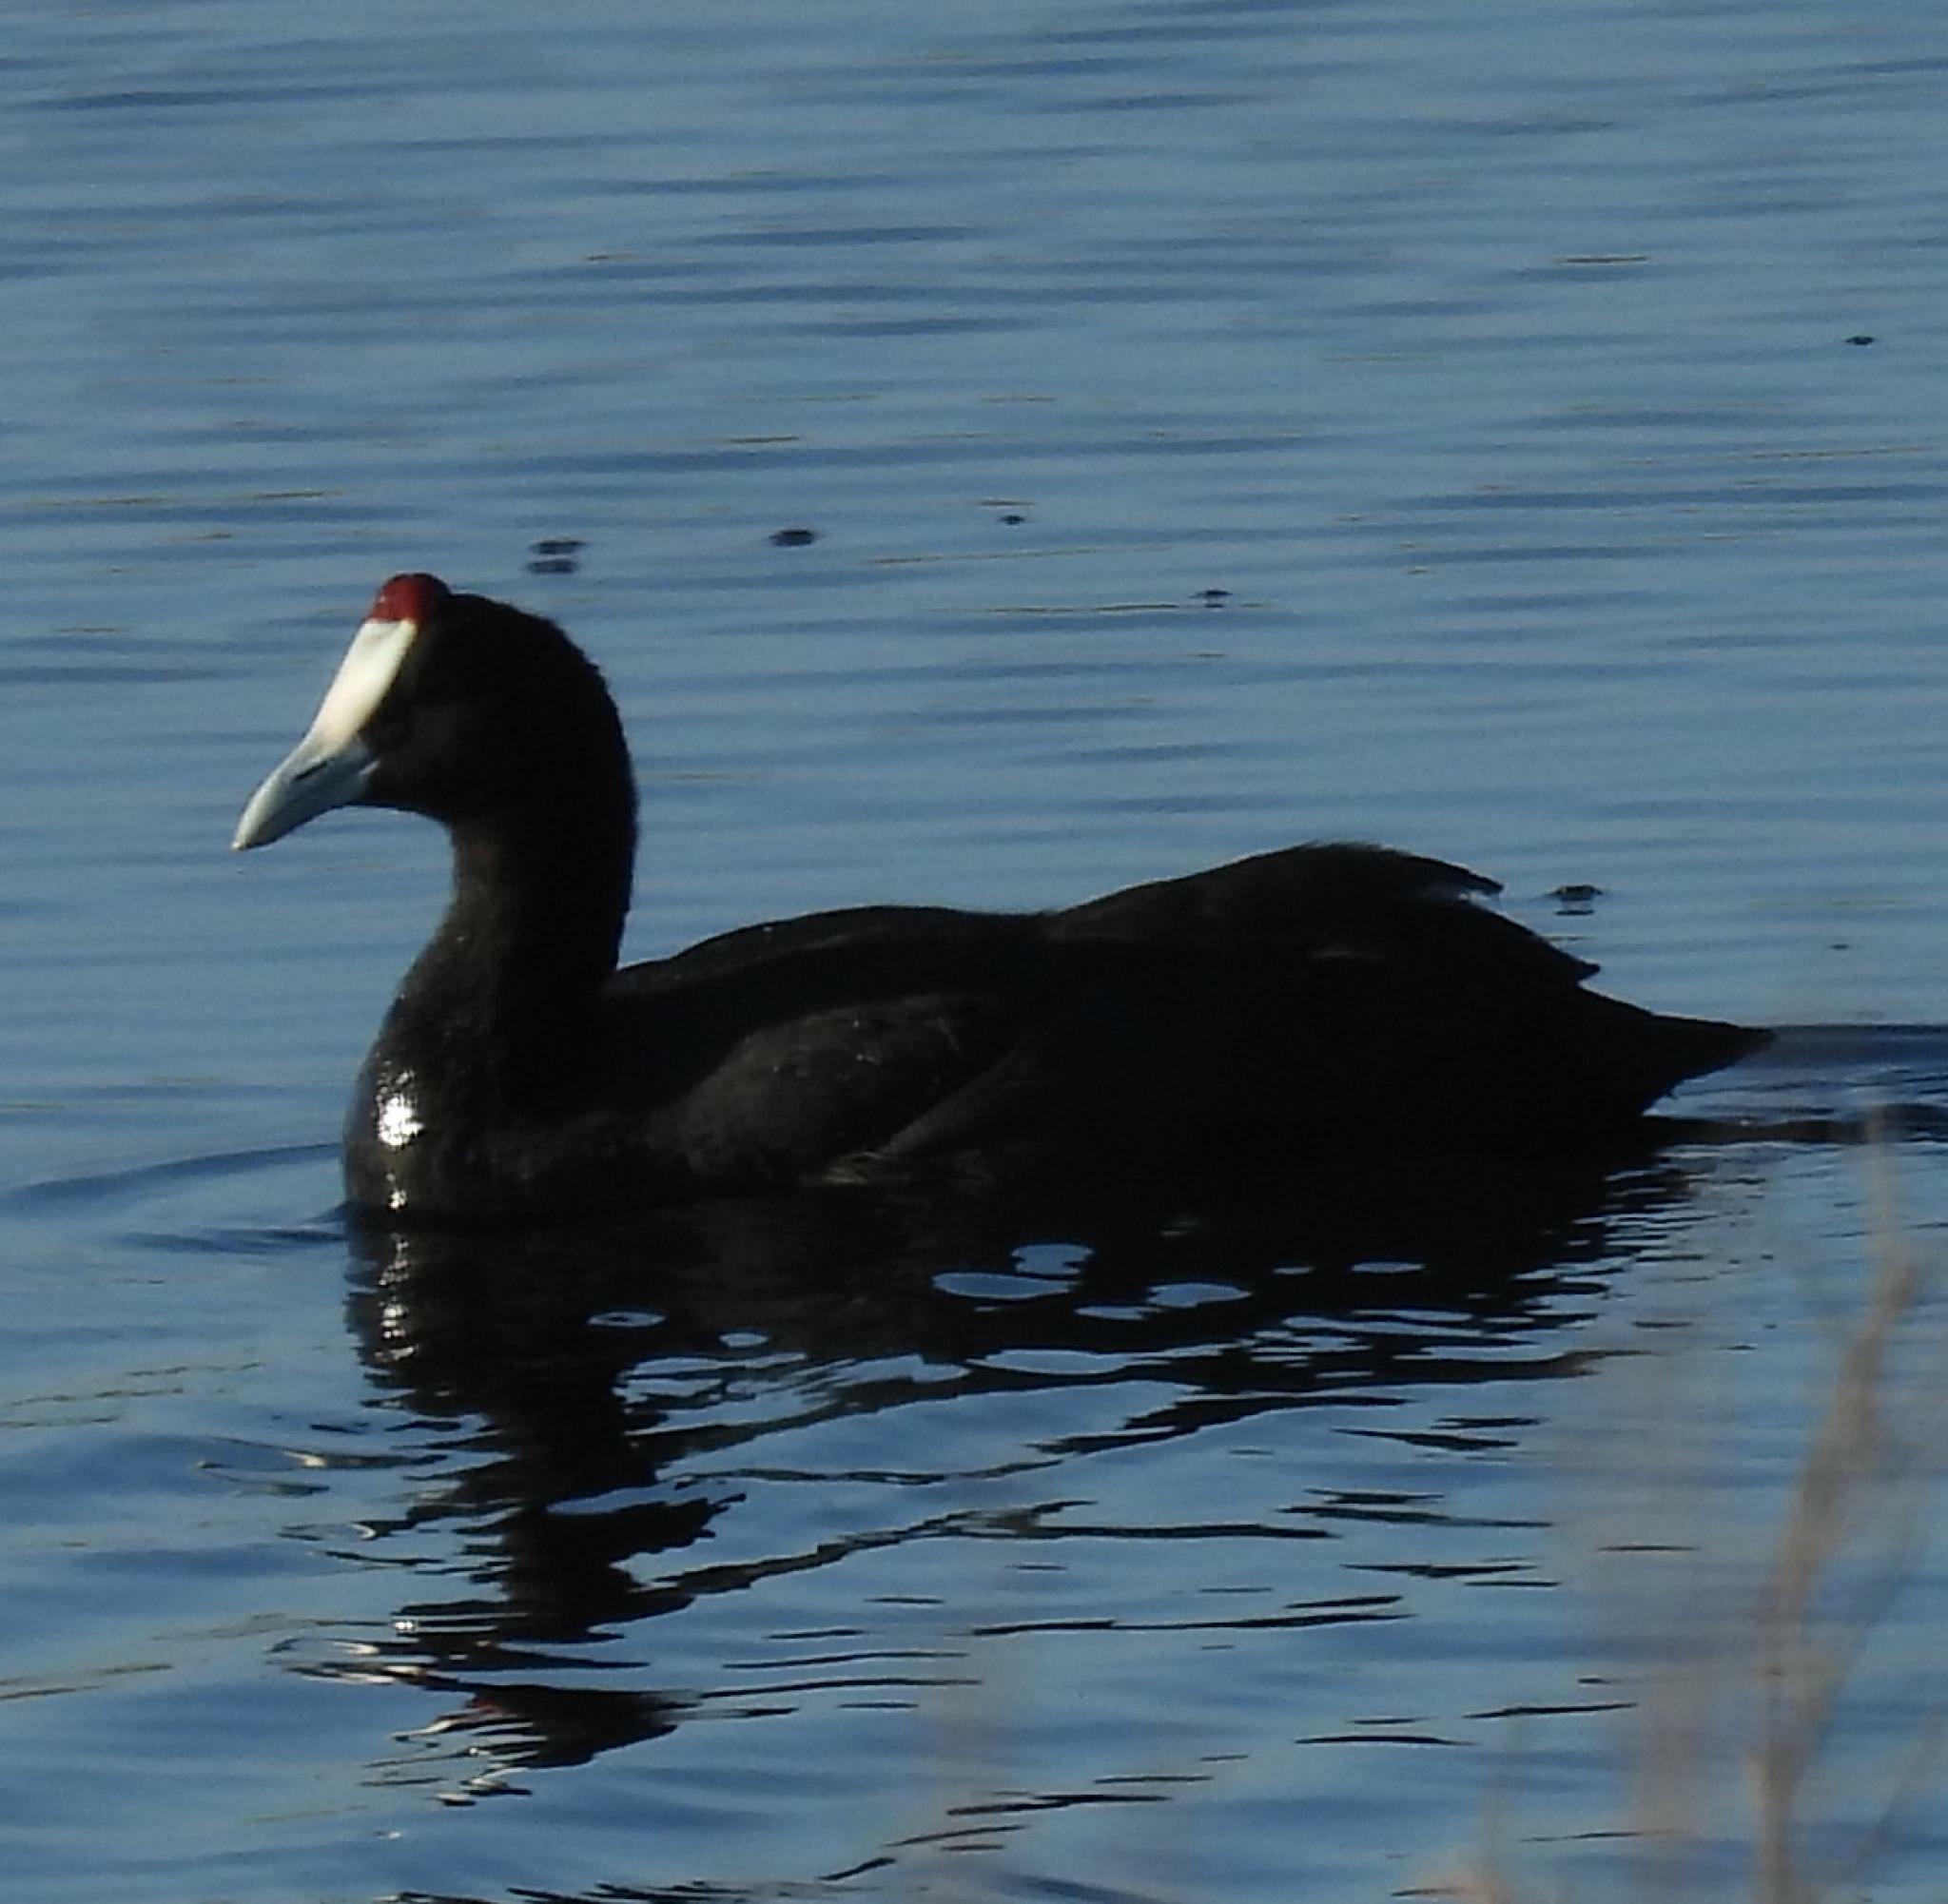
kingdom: Animalia
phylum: Chordata
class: Aves
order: Gruiformes
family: Rallidae
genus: Fulica
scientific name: Fulica cristata
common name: Red-knobbed coot
